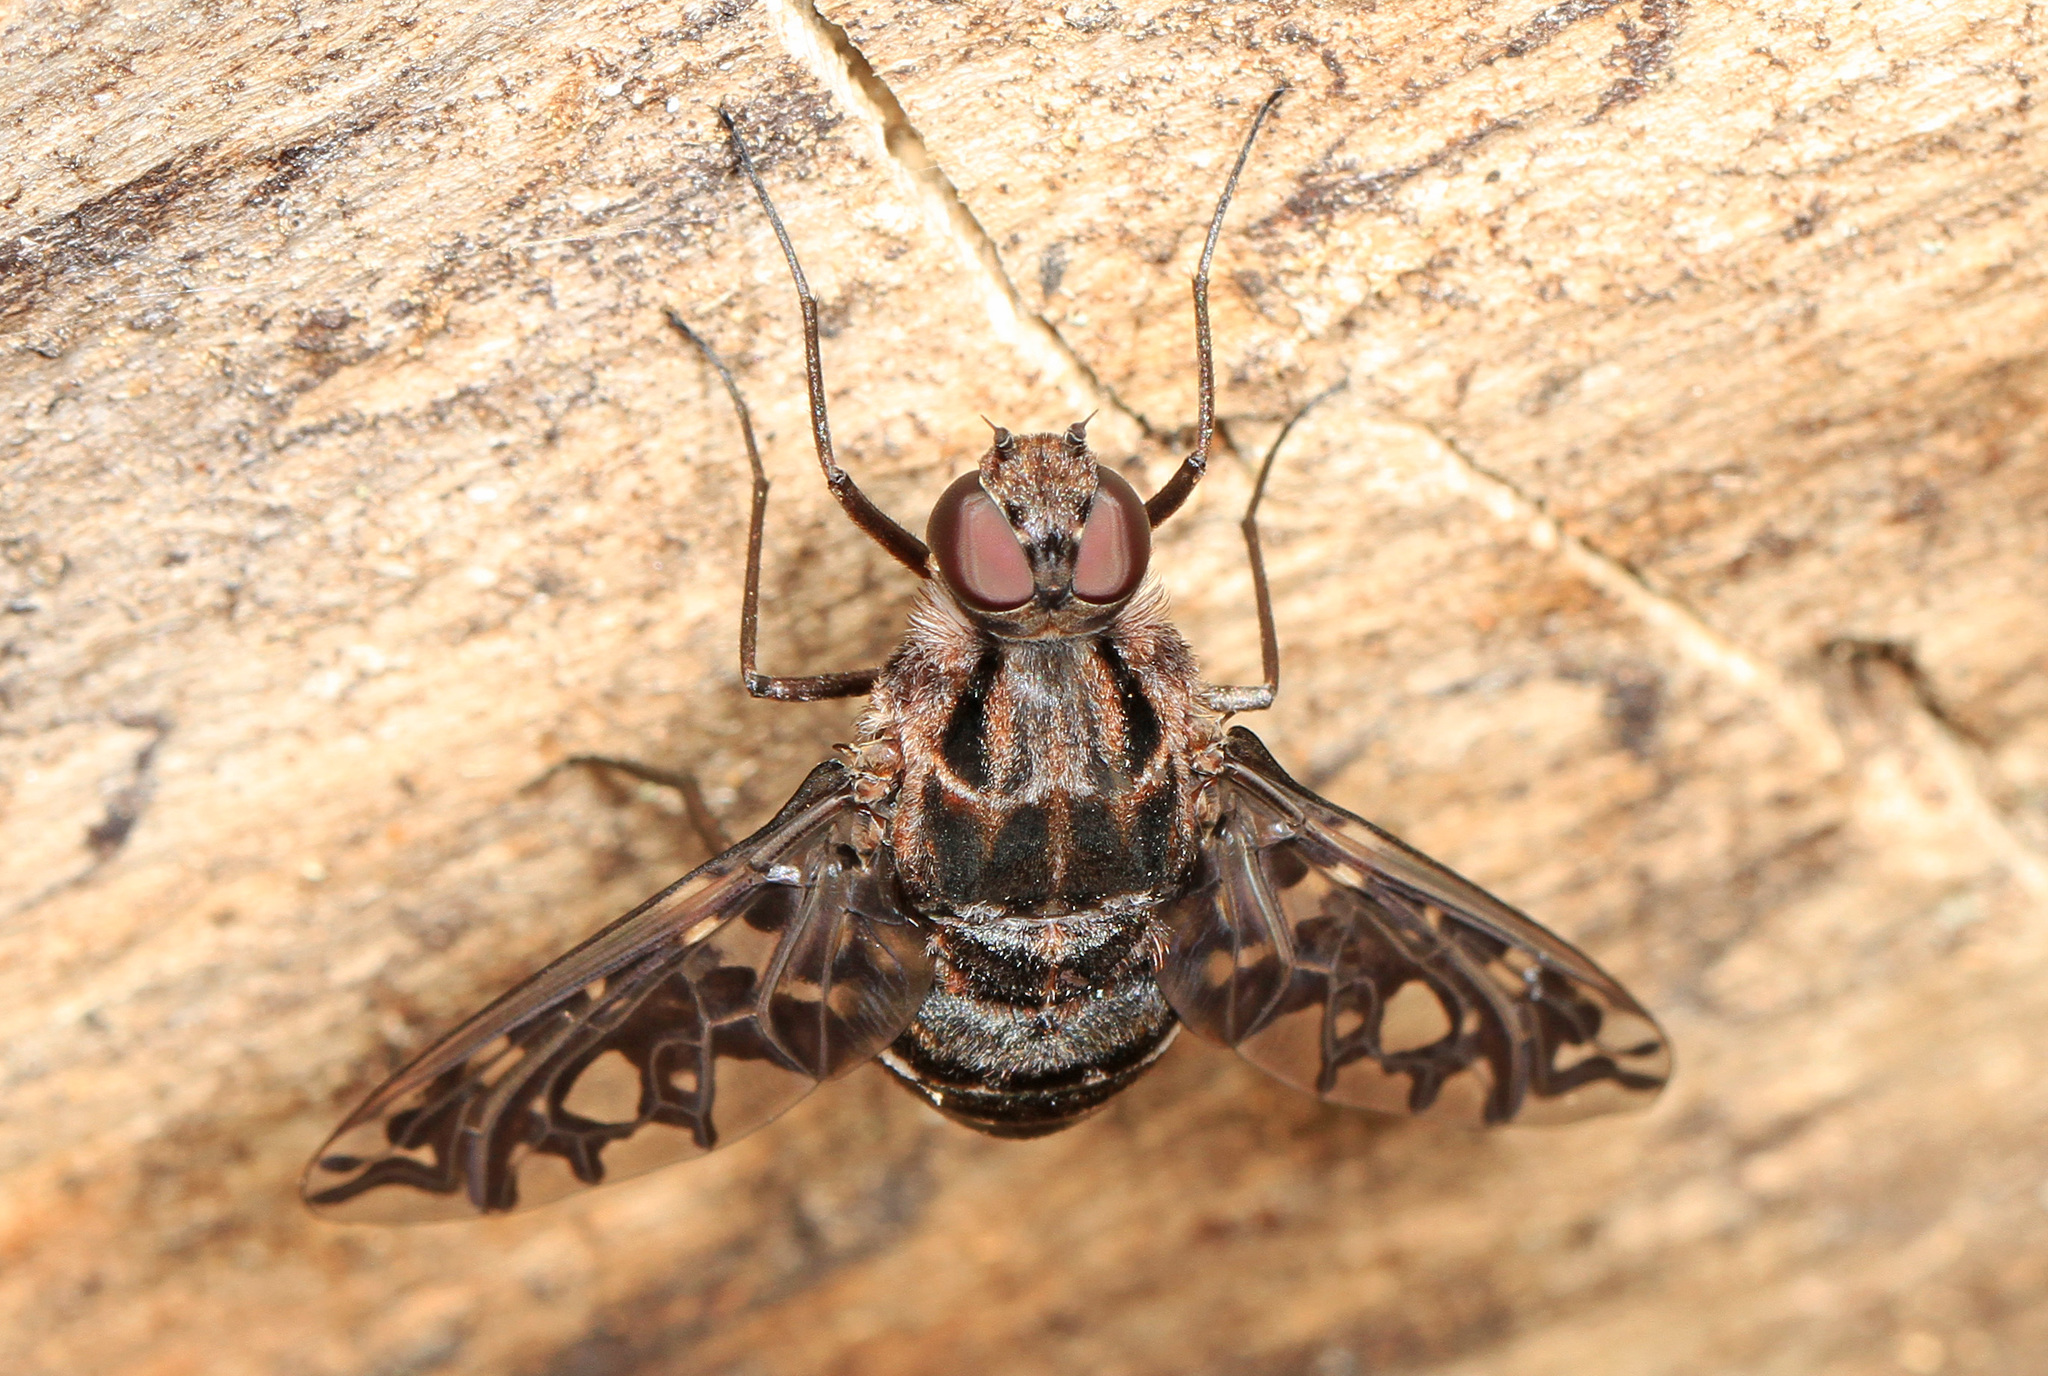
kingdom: Animalia
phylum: Arthropoda
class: Insecta
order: Diptera
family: Bombyliidae
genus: Xenox
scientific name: Xenox tigrinus
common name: Tiger bee fly
